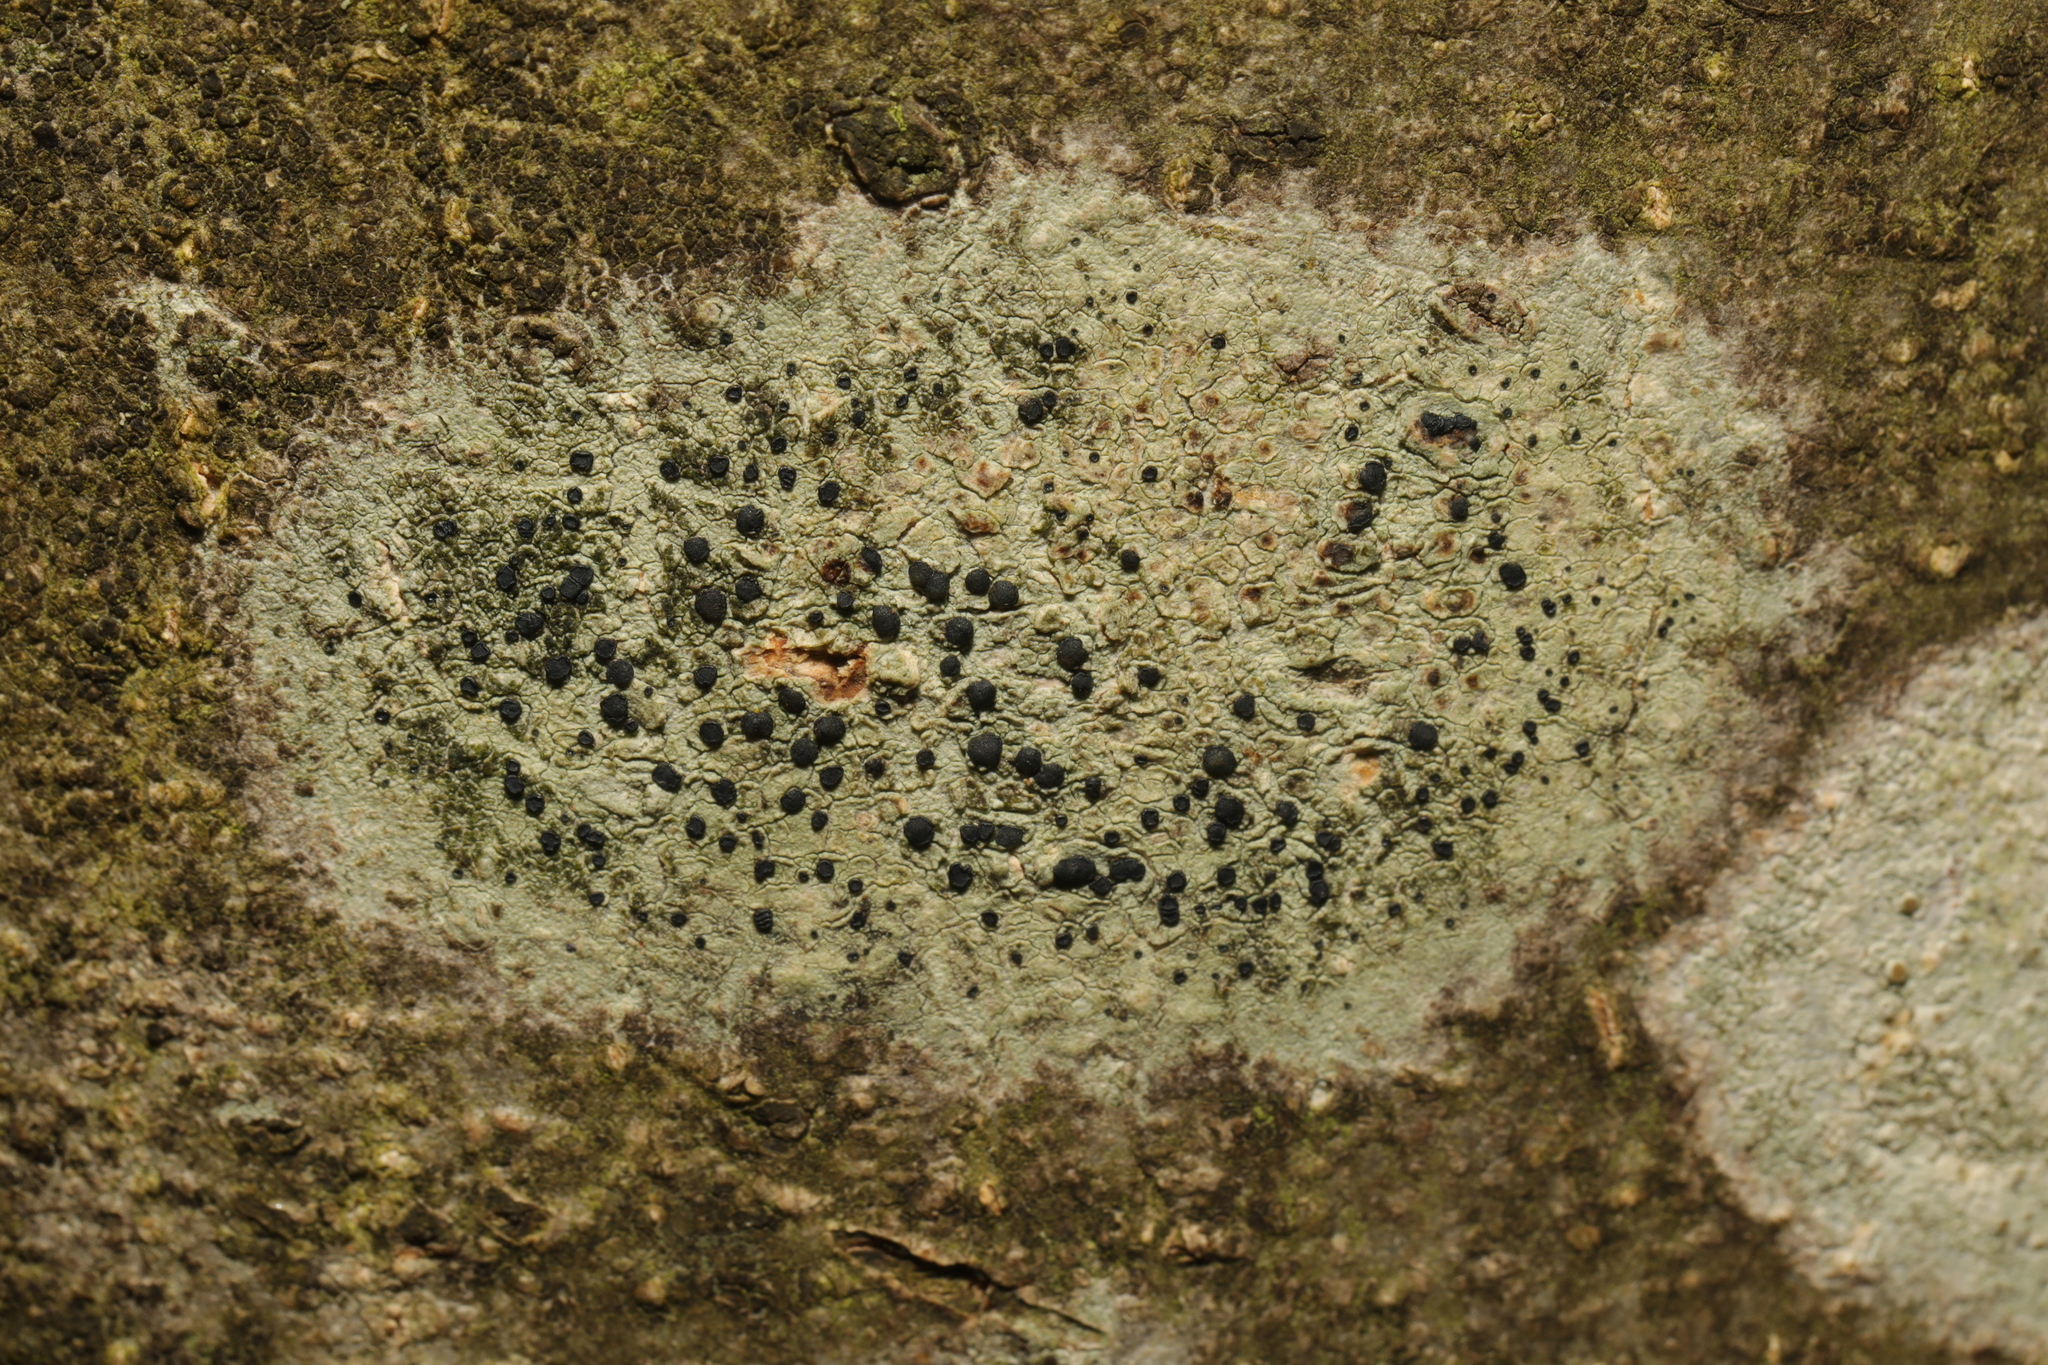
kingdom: Fungi
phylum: Ascomycota
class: Lecanoromycetes
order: Lecanorales
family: Lecanoraceae
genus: Lecidella
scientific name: Lecidella elaeochroma
